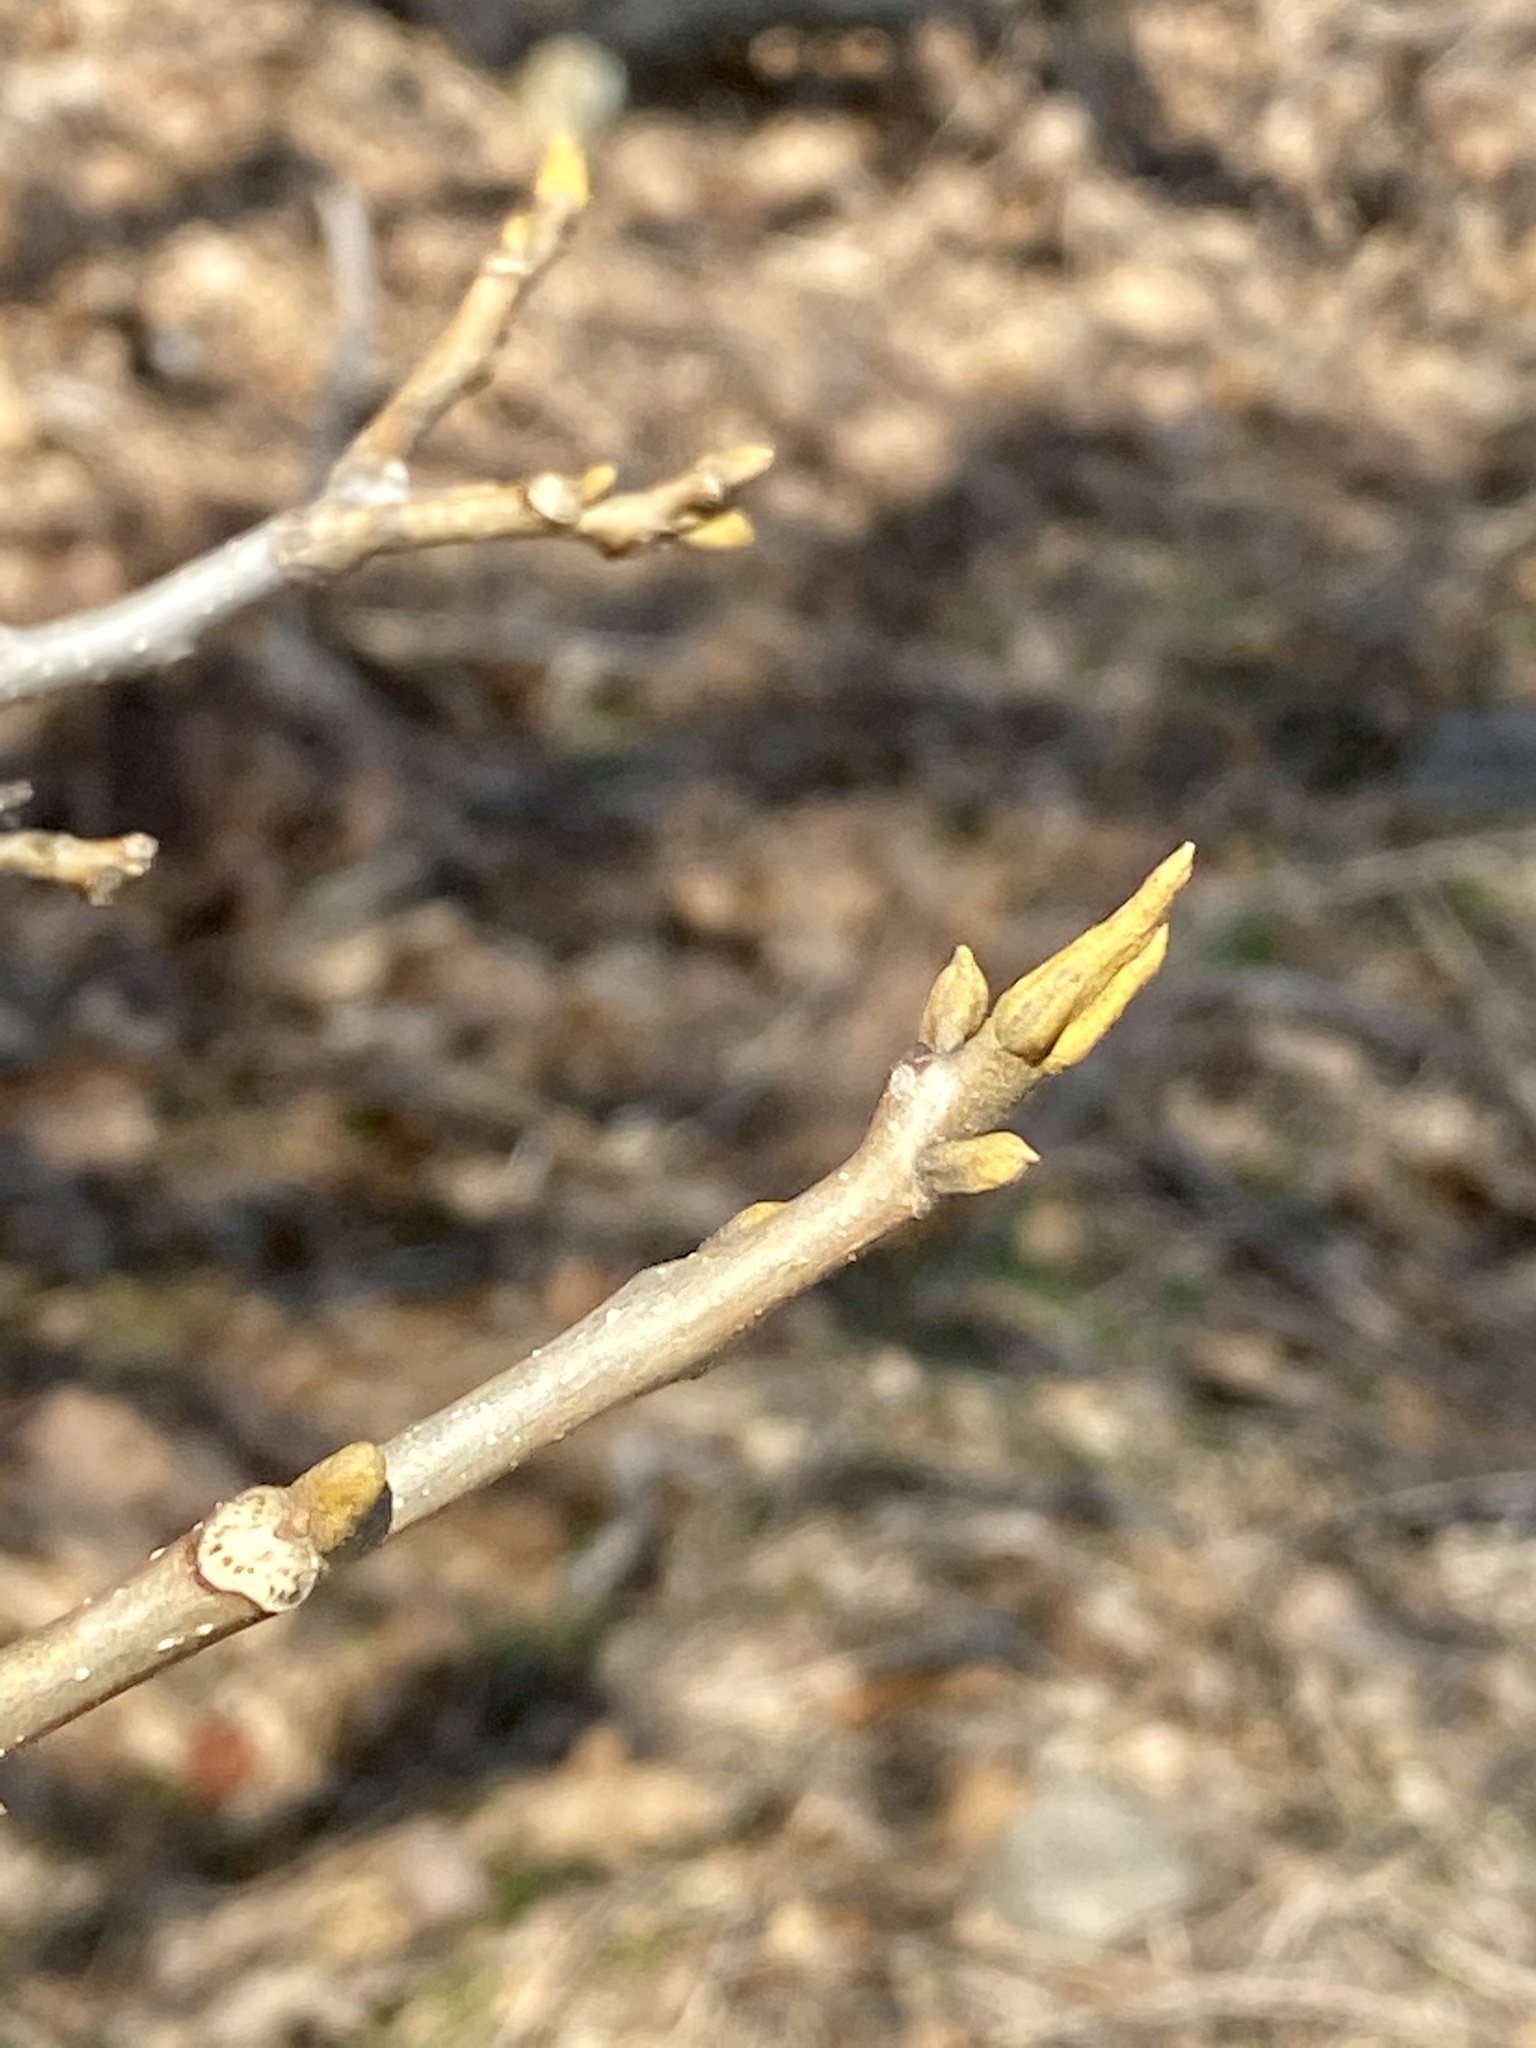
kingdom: Plantae
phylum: Tracheophyta
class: Magnoliopsida
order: Fagales
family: Juglandaceae
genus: Carya
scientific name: Carya cordiformis
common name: Bitternut hickory
